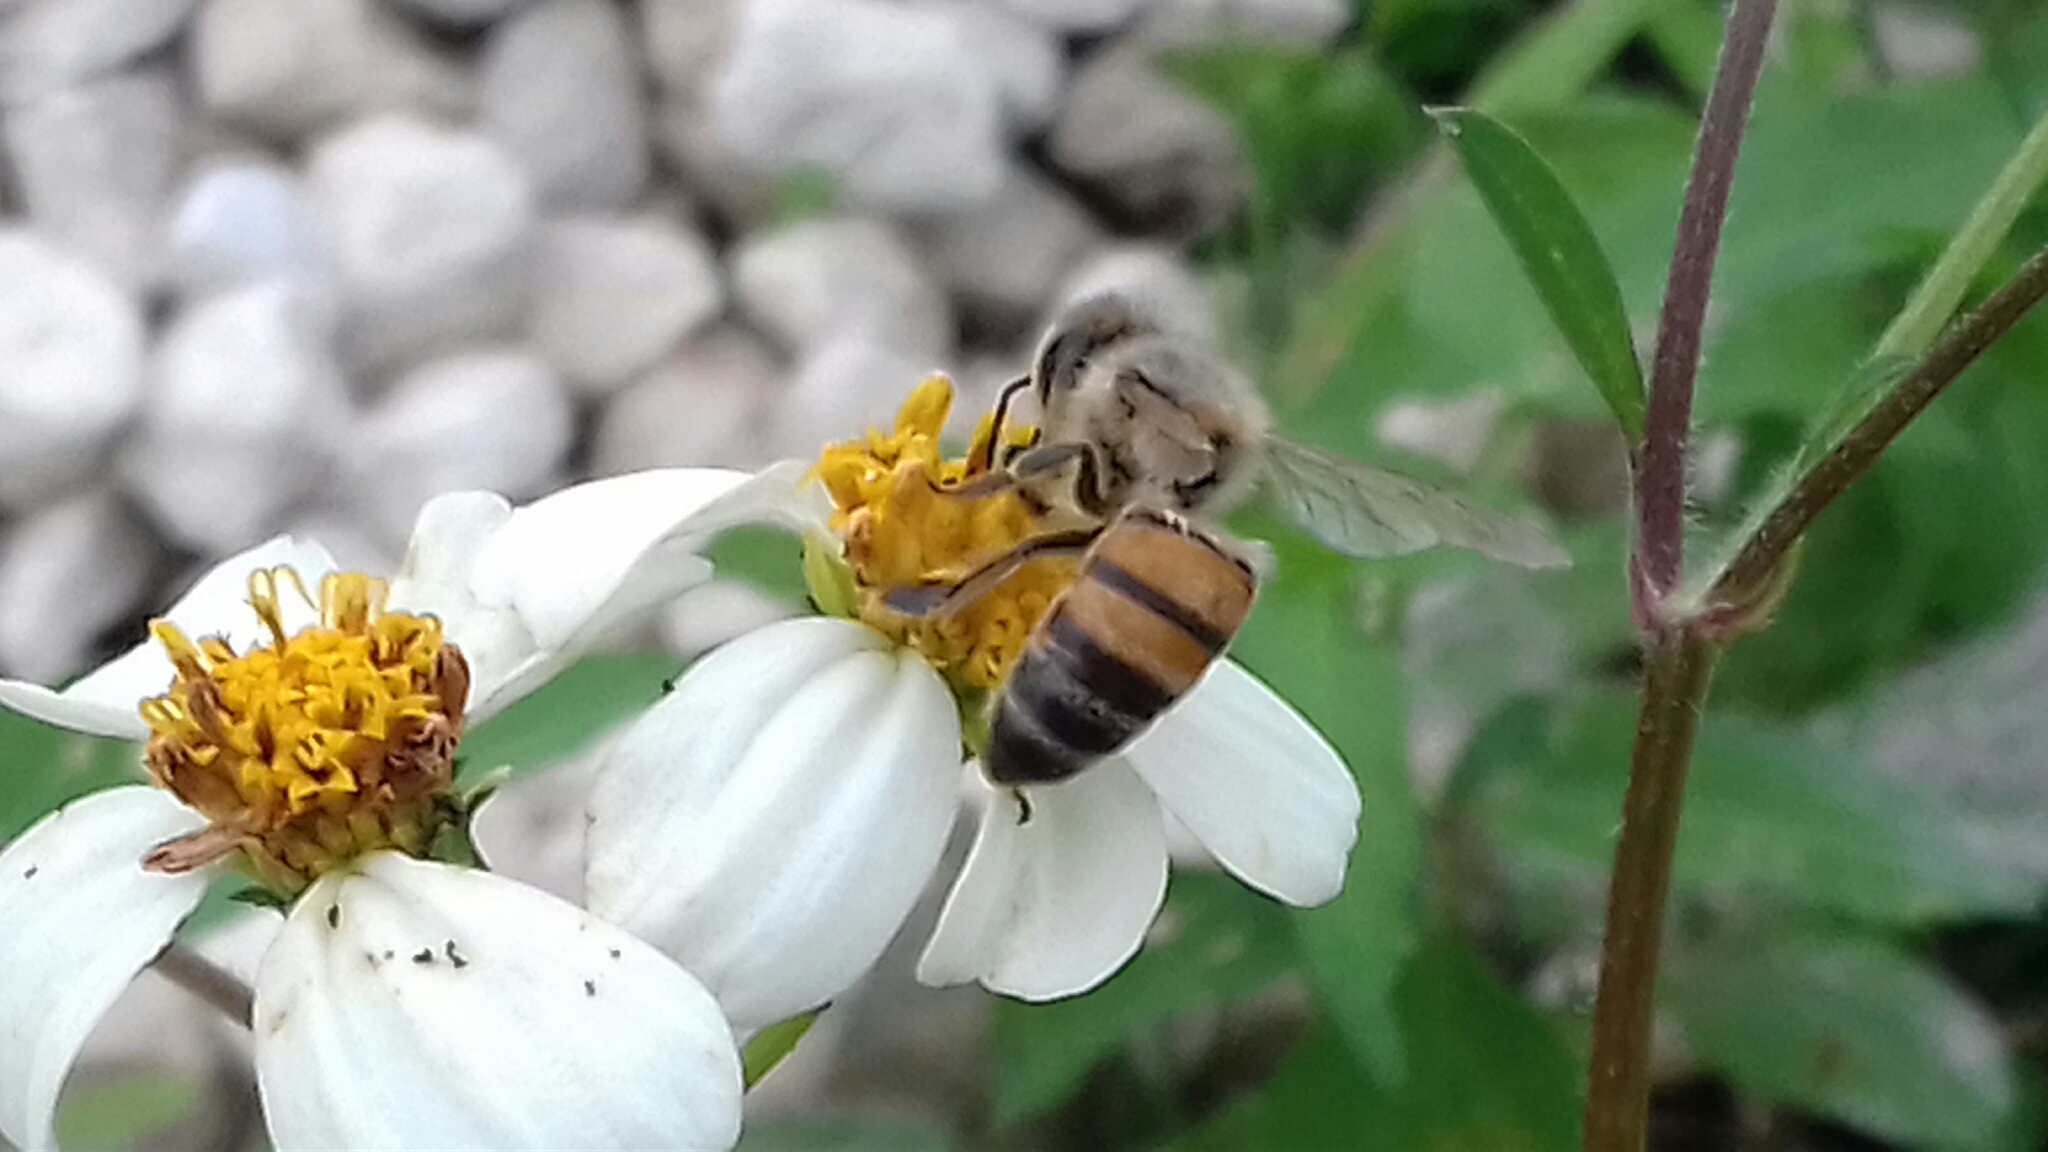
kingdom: Animalia
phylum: Arthropoda
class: Insecta
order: Hymenoptera
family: Apidae
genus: Apis
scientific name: Apis mellifera
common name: Honey bee
